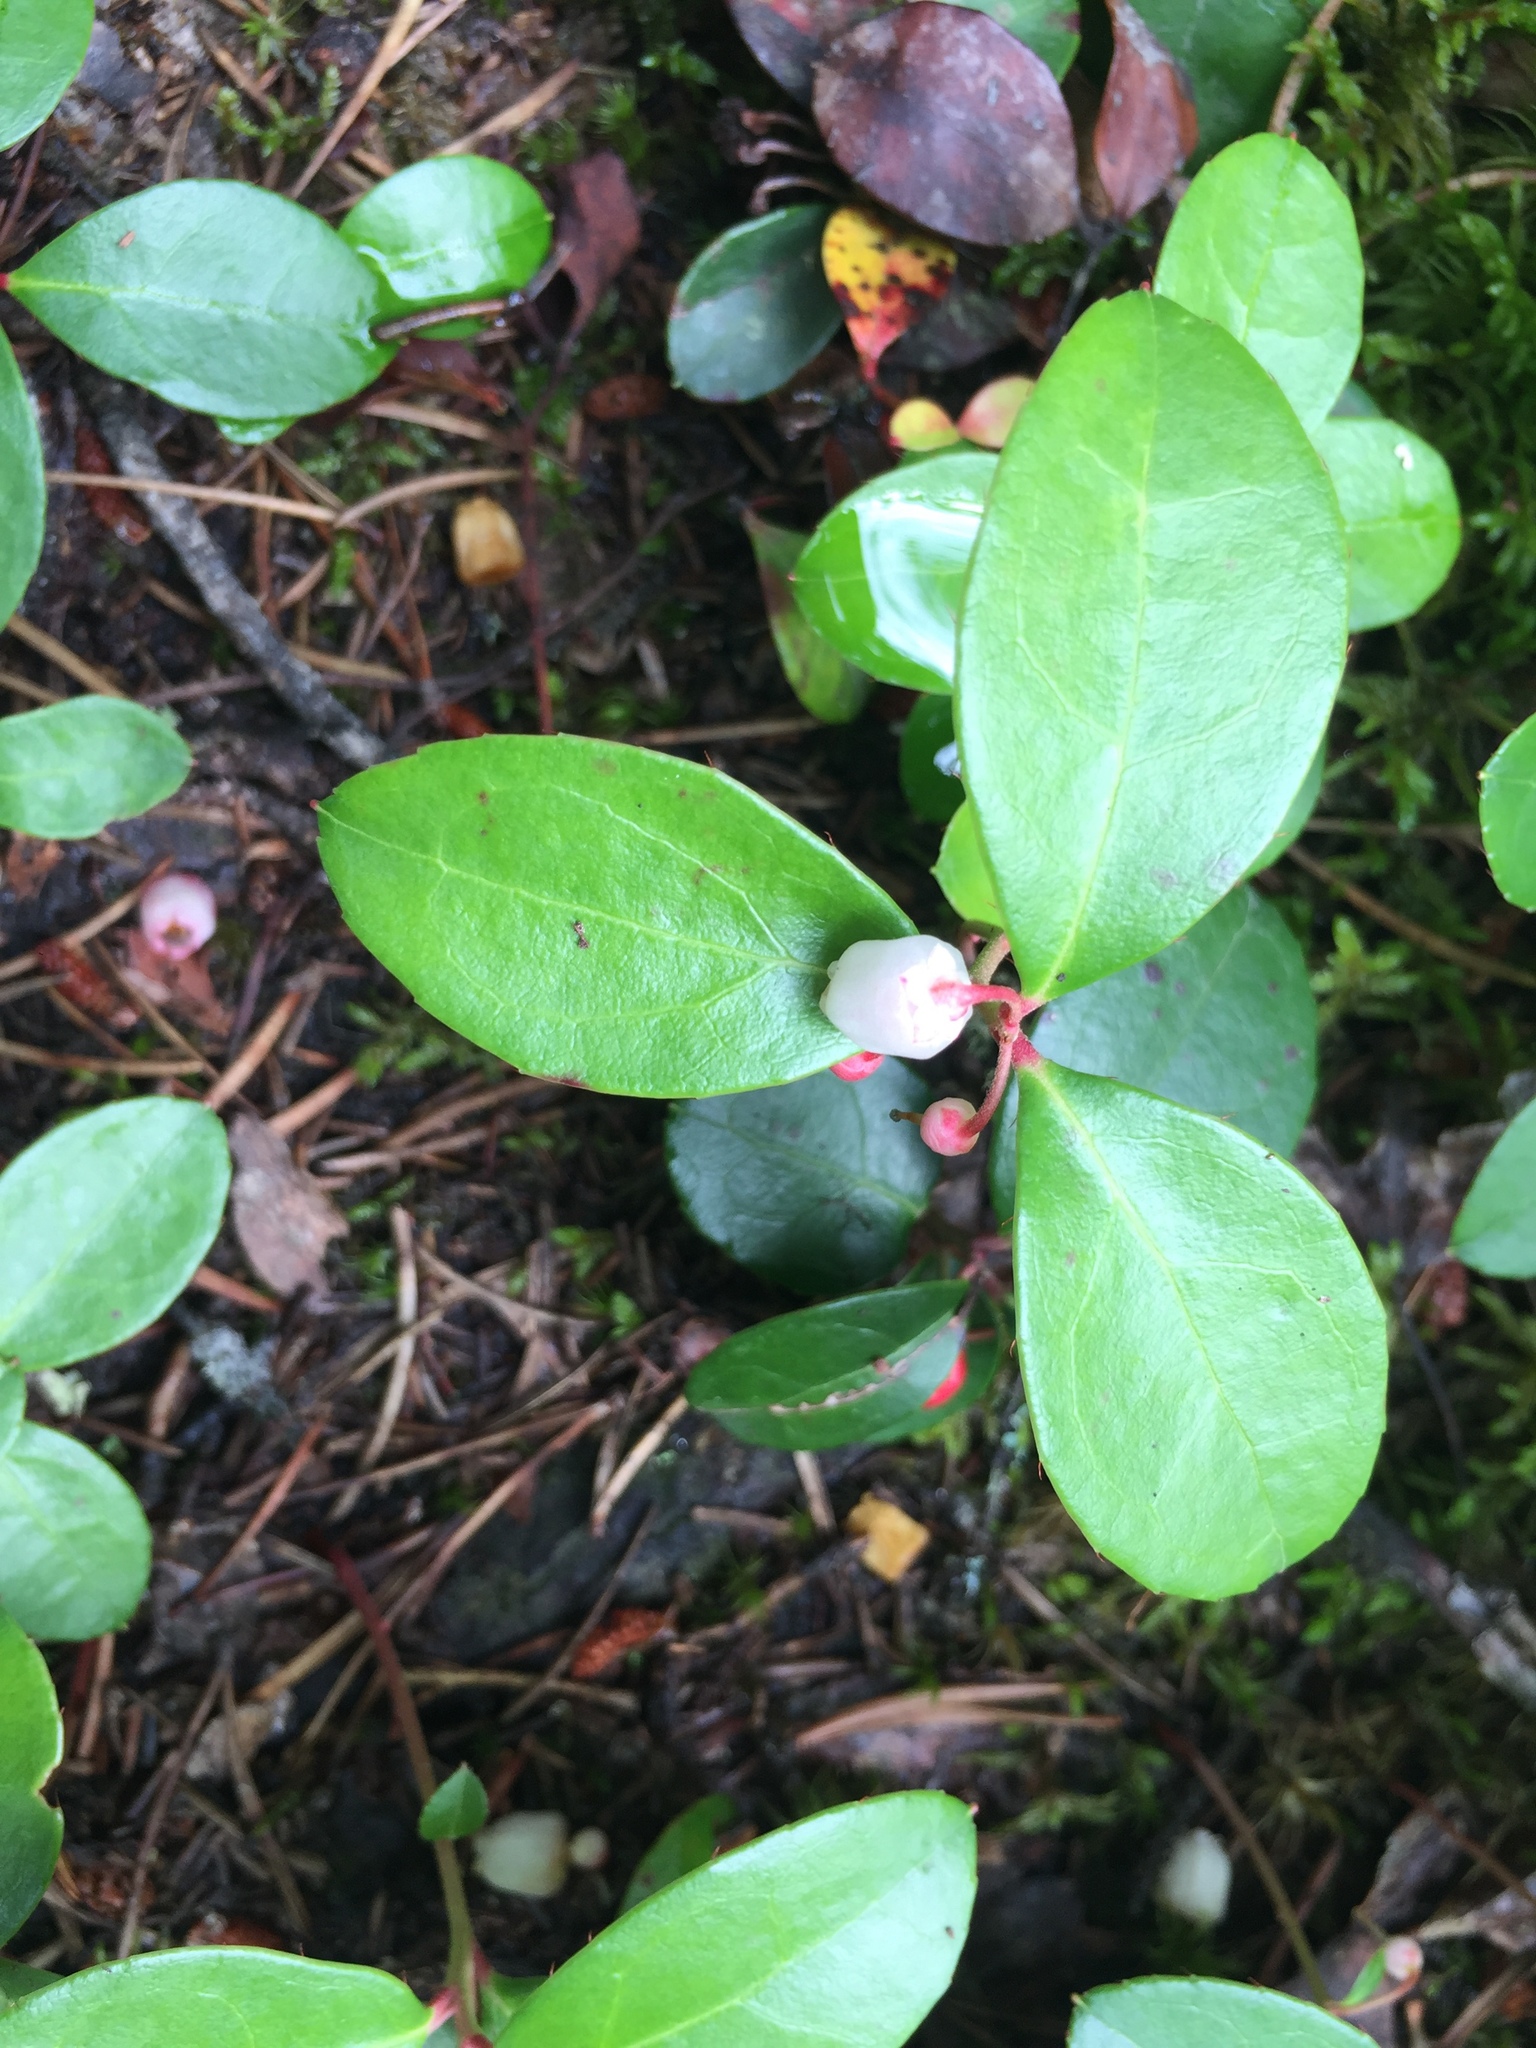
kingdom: Plantae
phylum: Tracheophyta
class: Magnoliopsida
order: Ericales
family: Ericaceae
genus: Gaultheria
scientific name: Gaultheria procumbens
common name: Checkerberry
